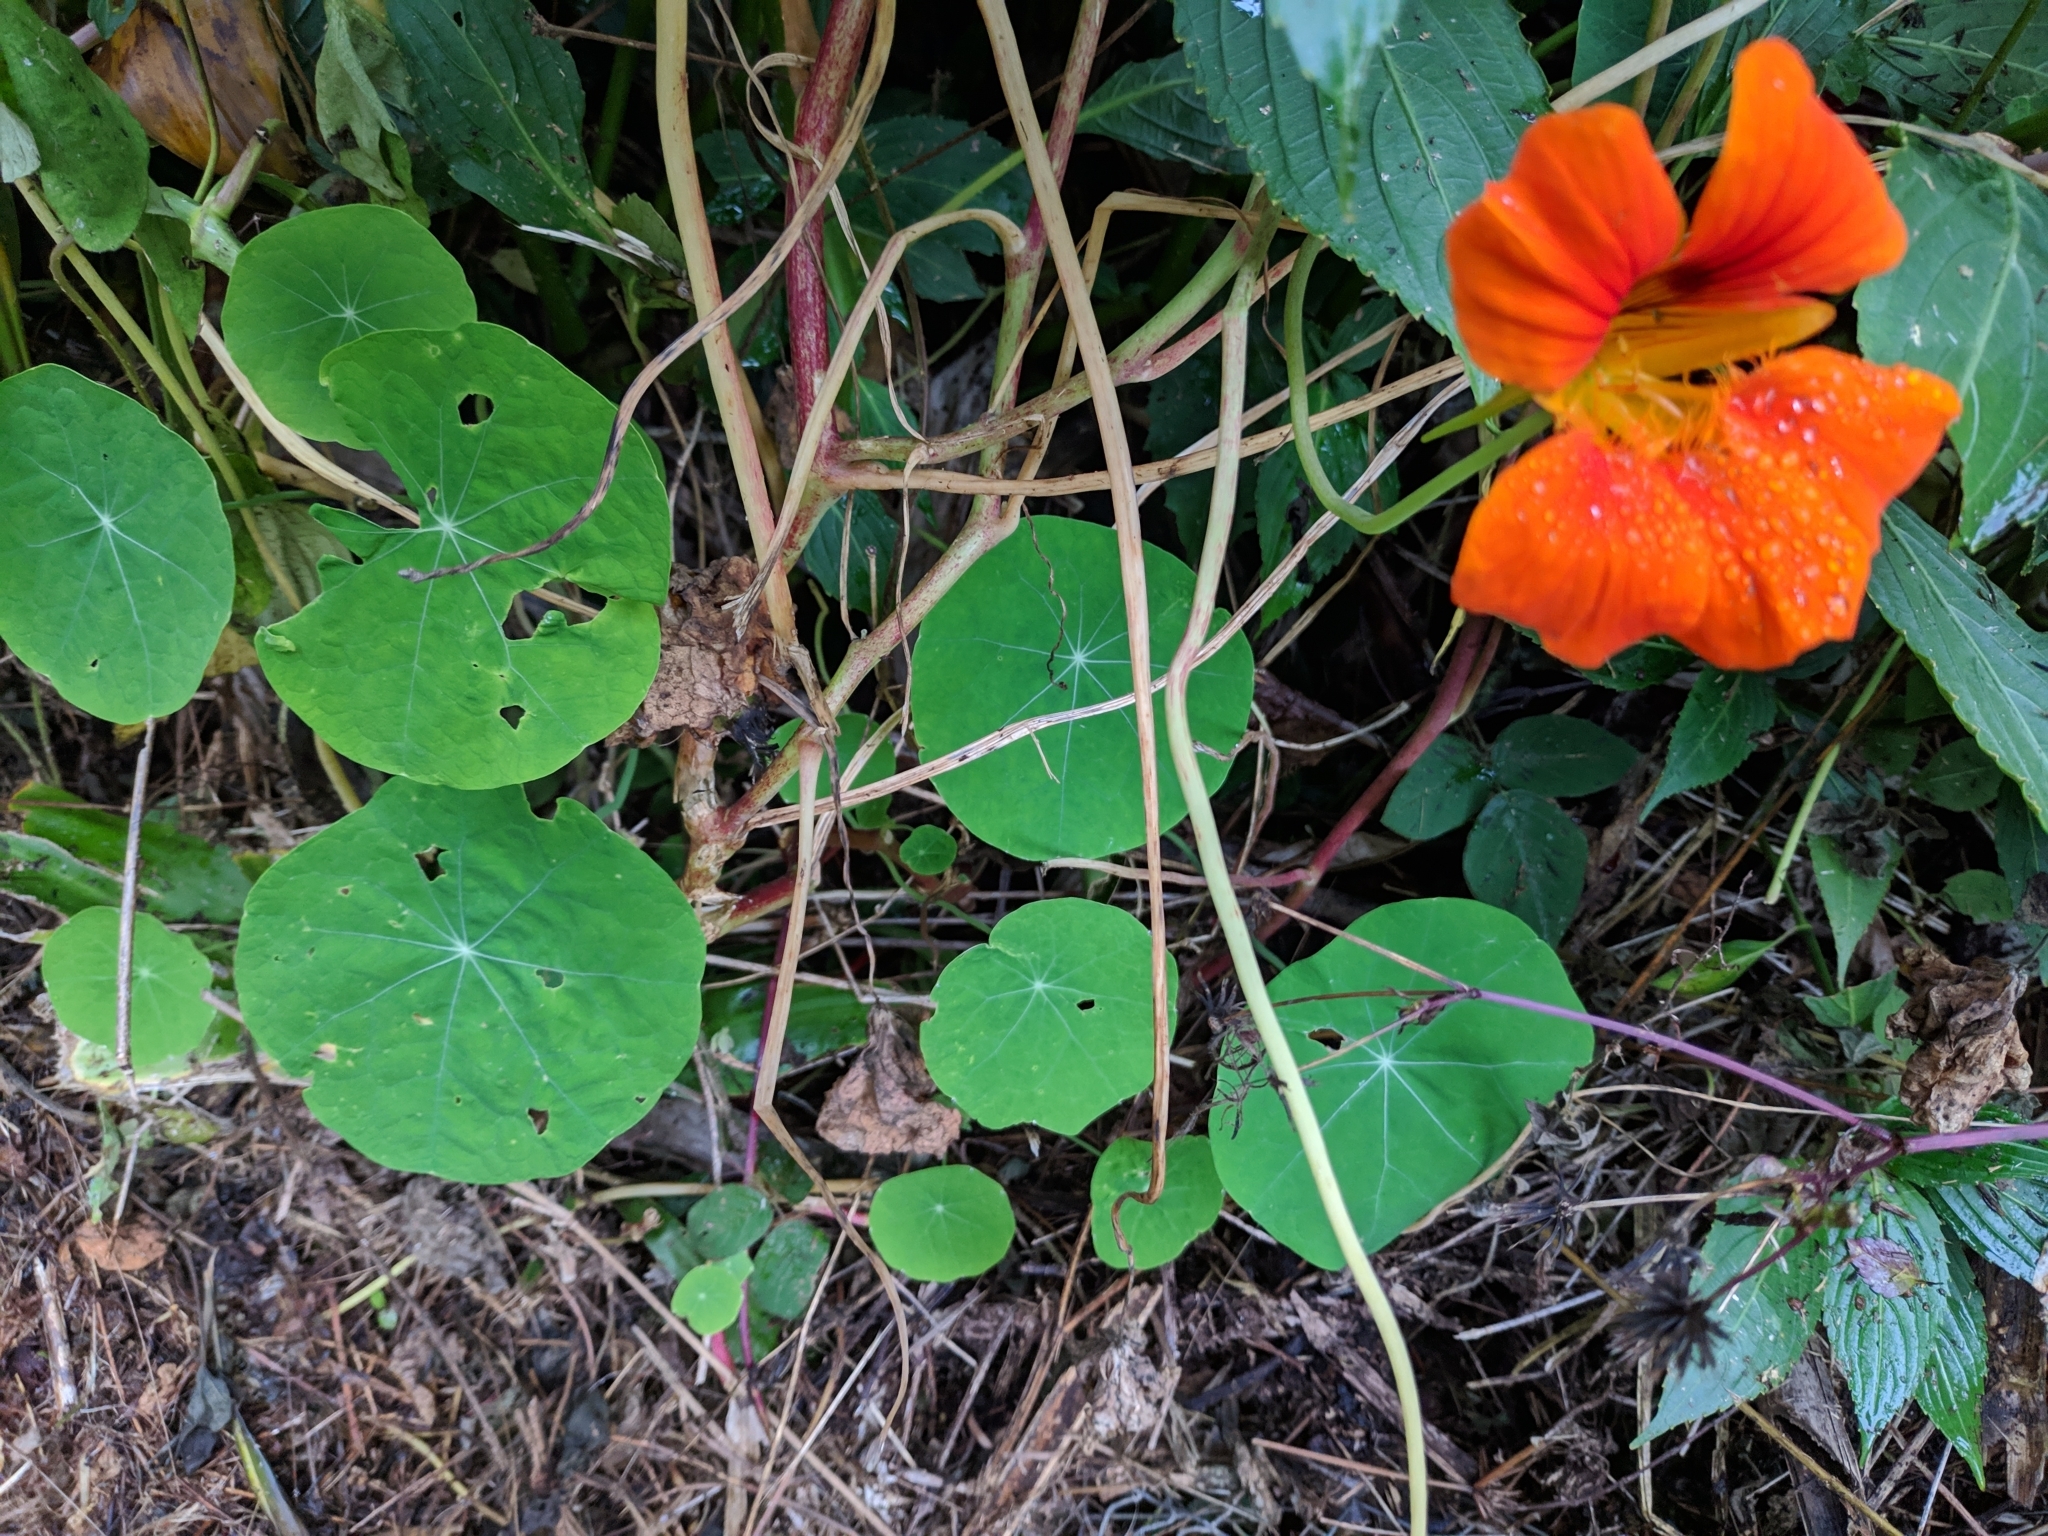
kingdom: Plantae
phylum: Tracheophyta
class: Magnoliopsida
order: Brassicales
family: Tropaeolaceae
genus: Tropaeolum
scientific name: Tropaeolum majus
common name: Nasturtium
